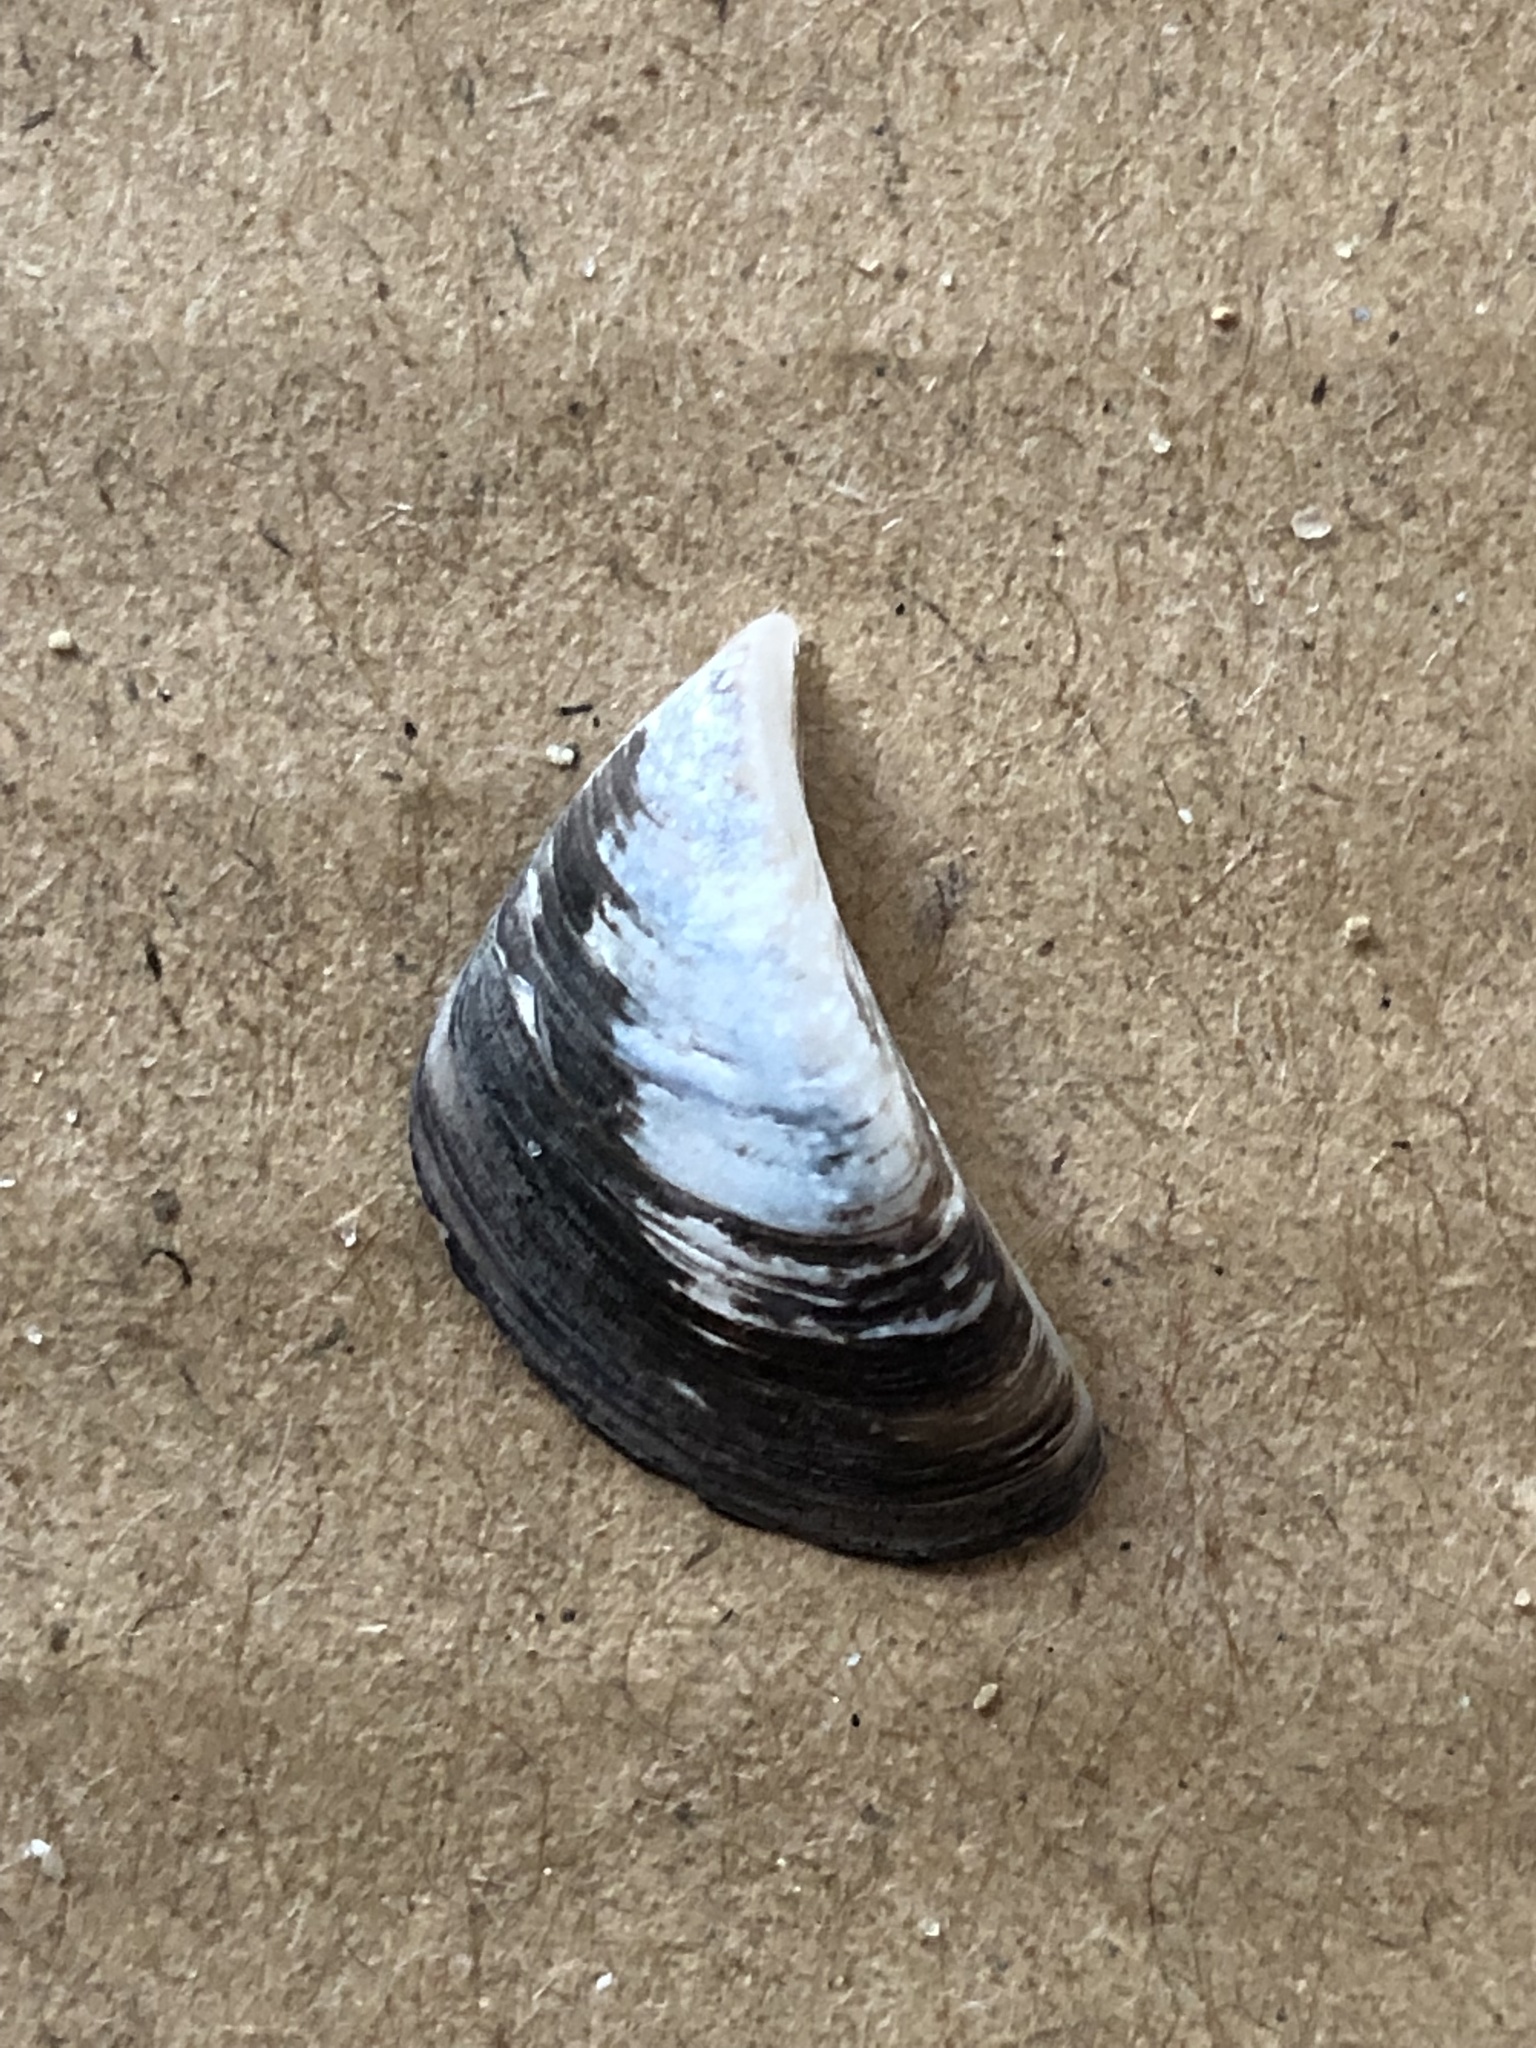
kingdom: Animalia
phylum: Mollusca
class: Bivalvia
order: Myida
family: Dreissenidae
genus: Dreissena
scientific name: Dreissena polymorpha
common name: Zebra mussel
